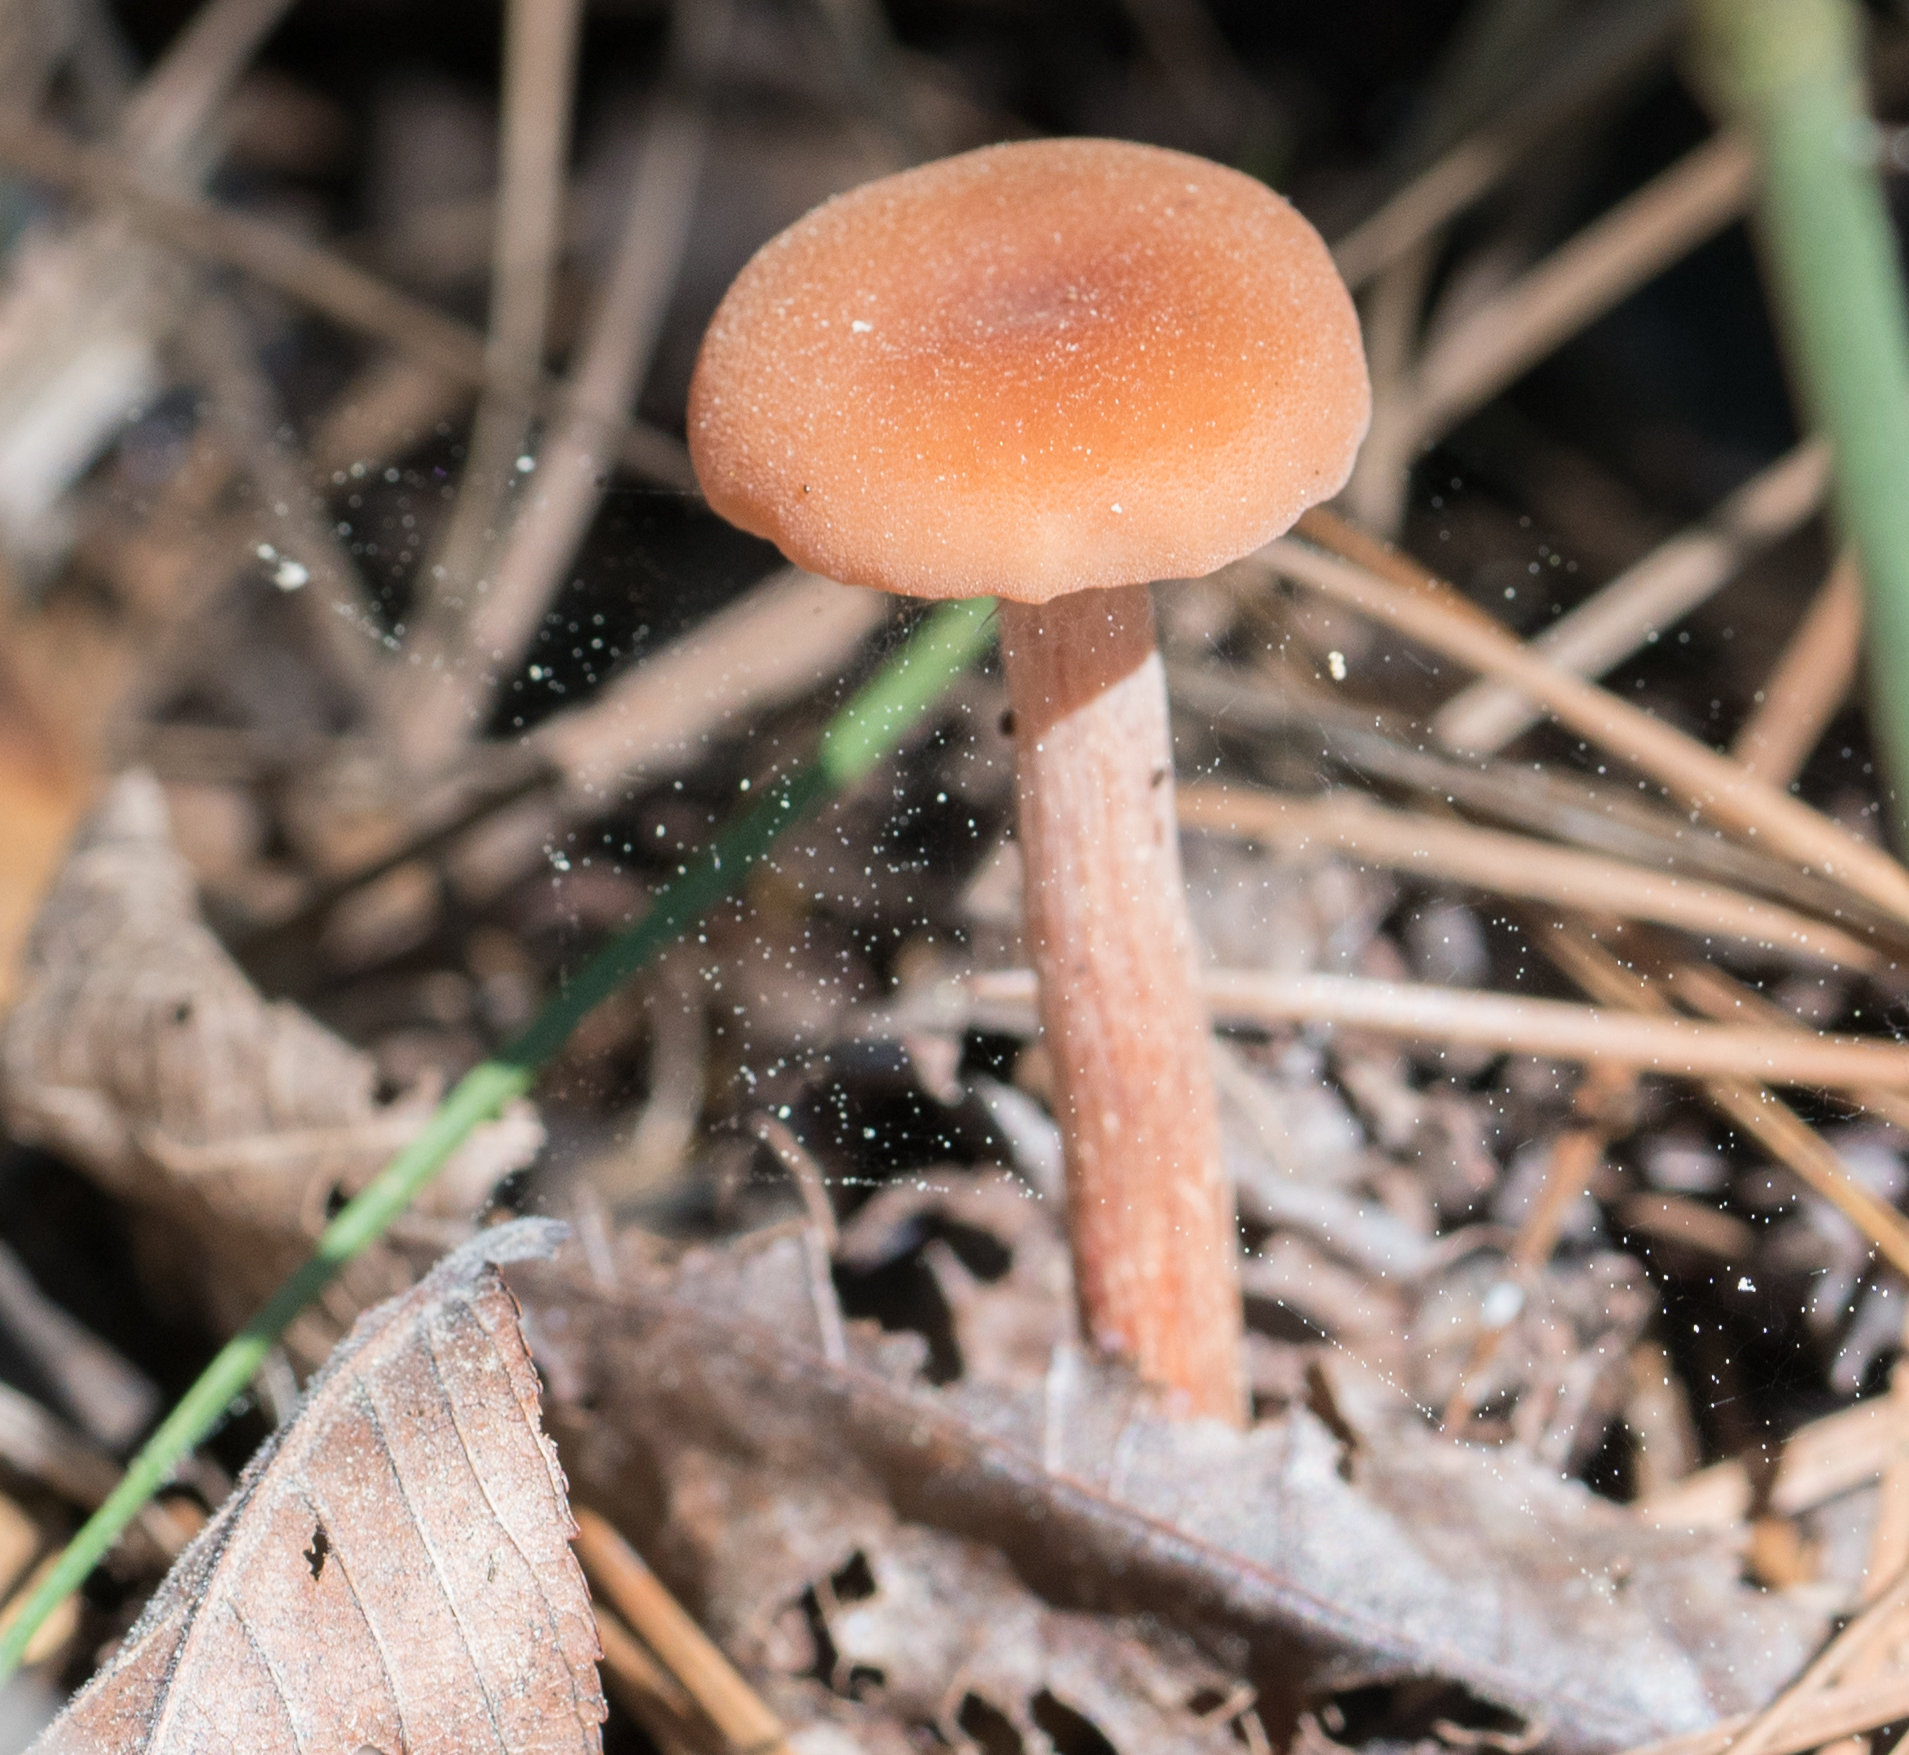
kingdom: Fungi
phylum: Basidiomycota
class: Agaricomycetes
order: Agaricales
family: Hydnangiaceae
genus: Laccaria
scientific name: Laccaria laccata
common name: Deceiver
